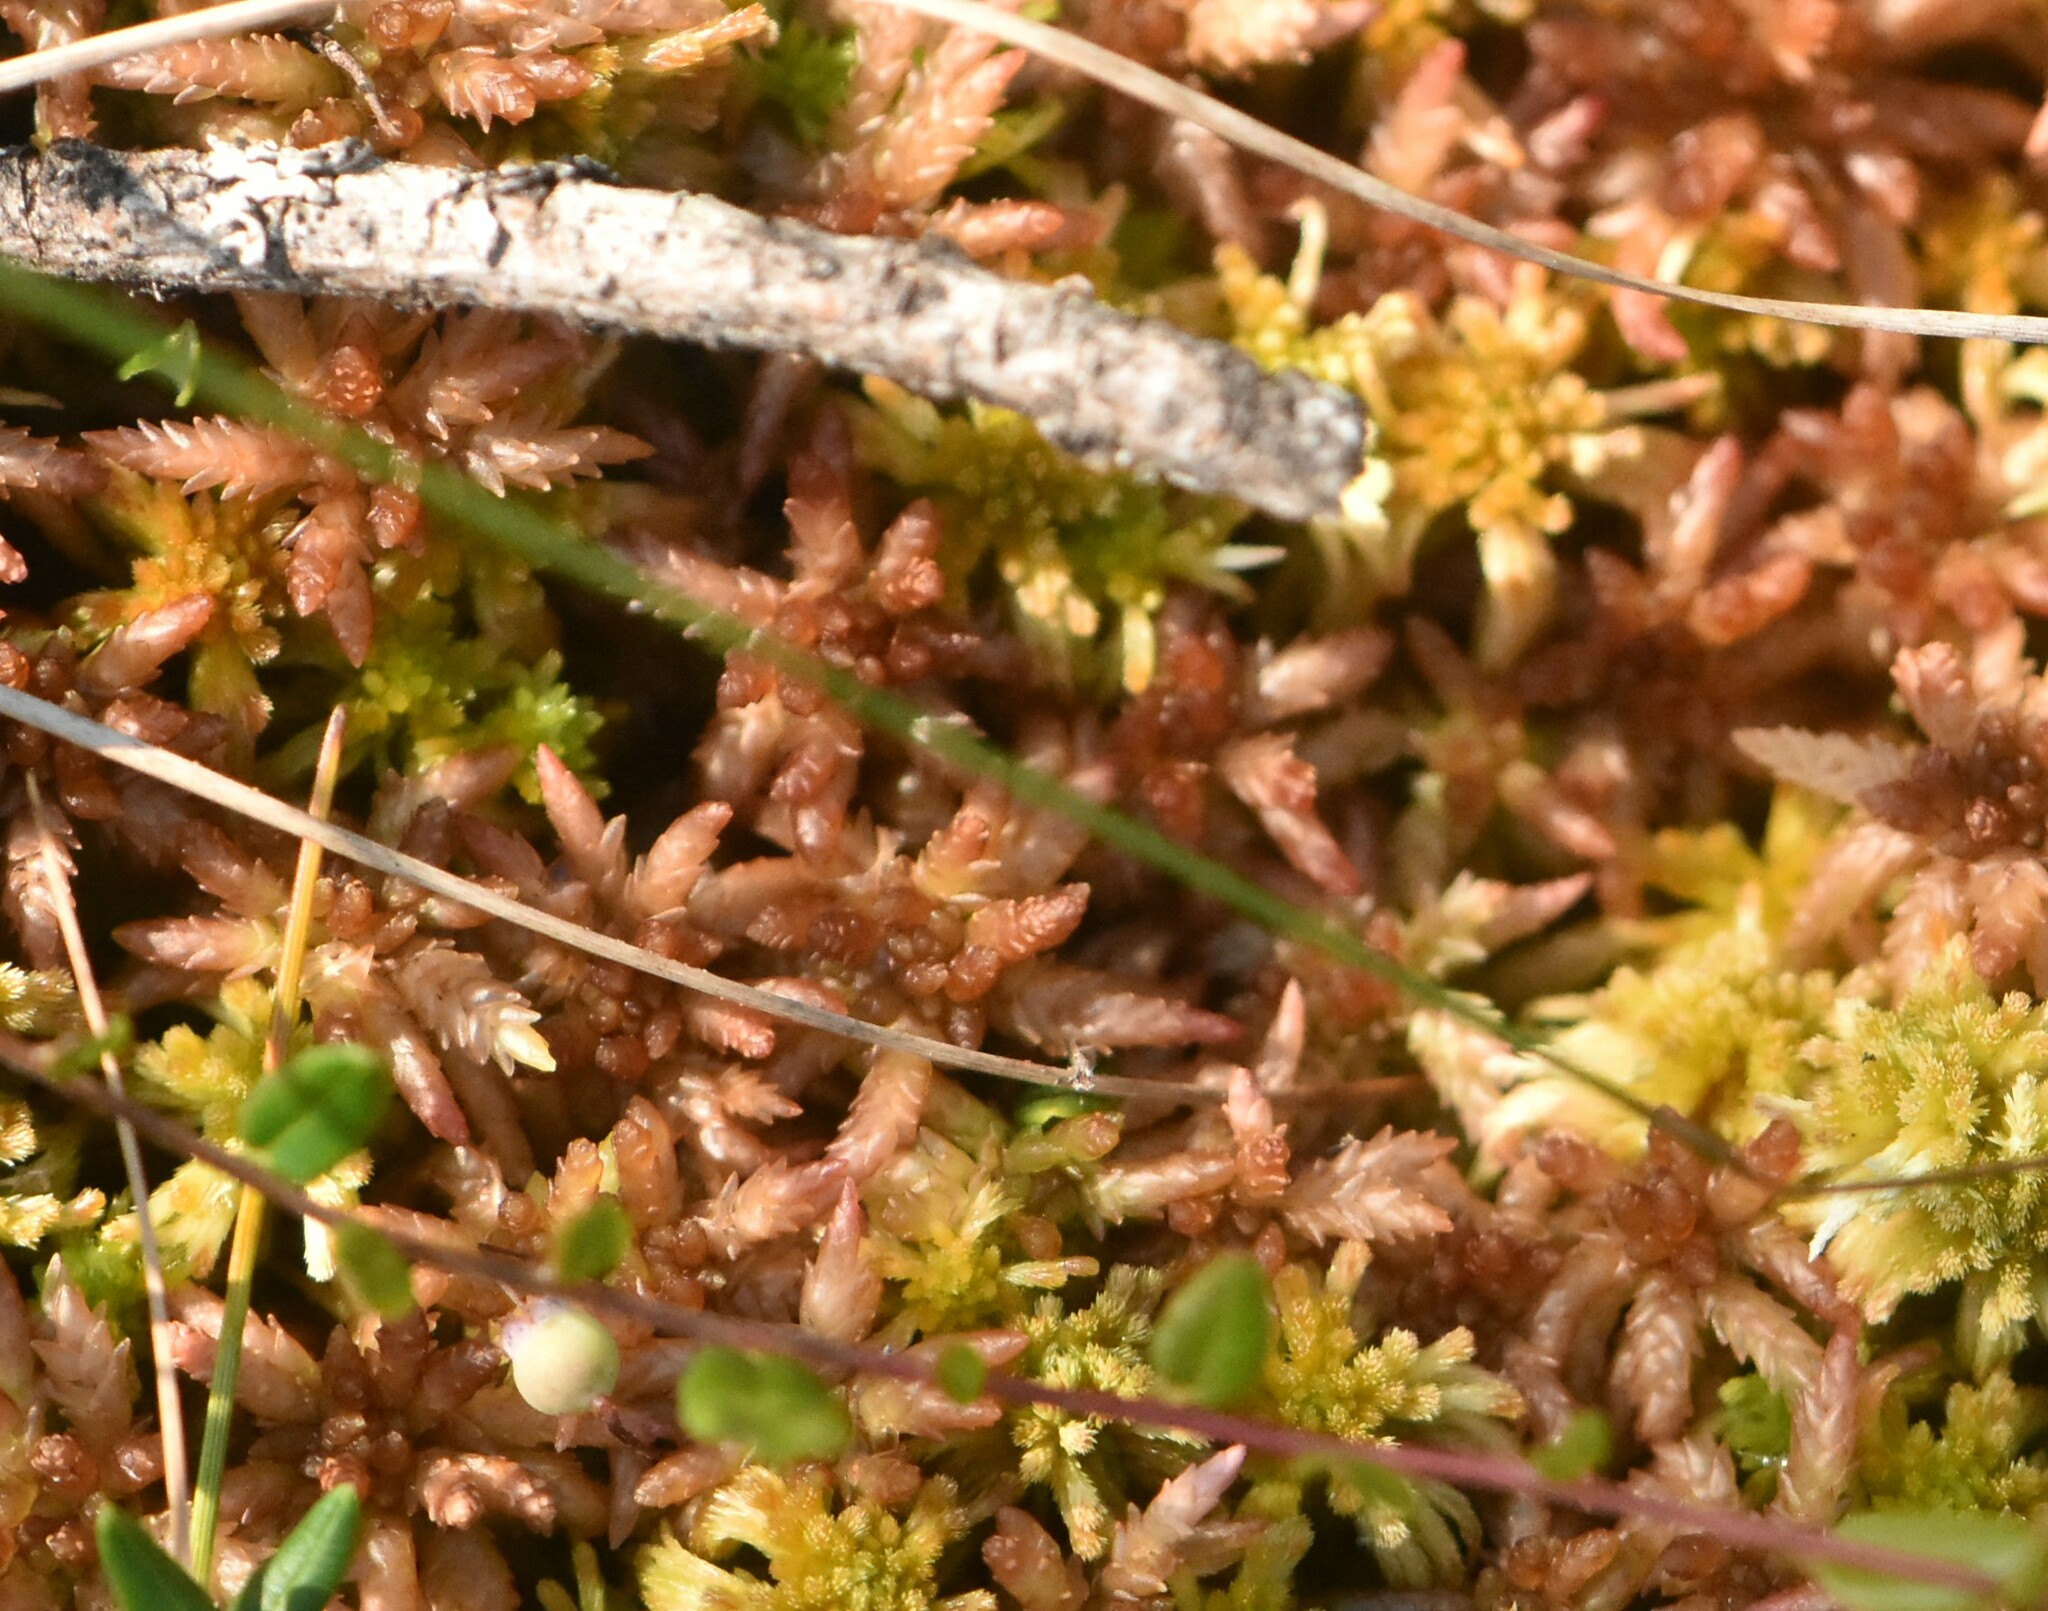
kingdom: Plantae
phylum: Bryophyta
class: Sphagnopsida
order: Sphagnales
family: Sphagnaceae
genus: Sphagnum
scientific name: Sphagnum divinum
